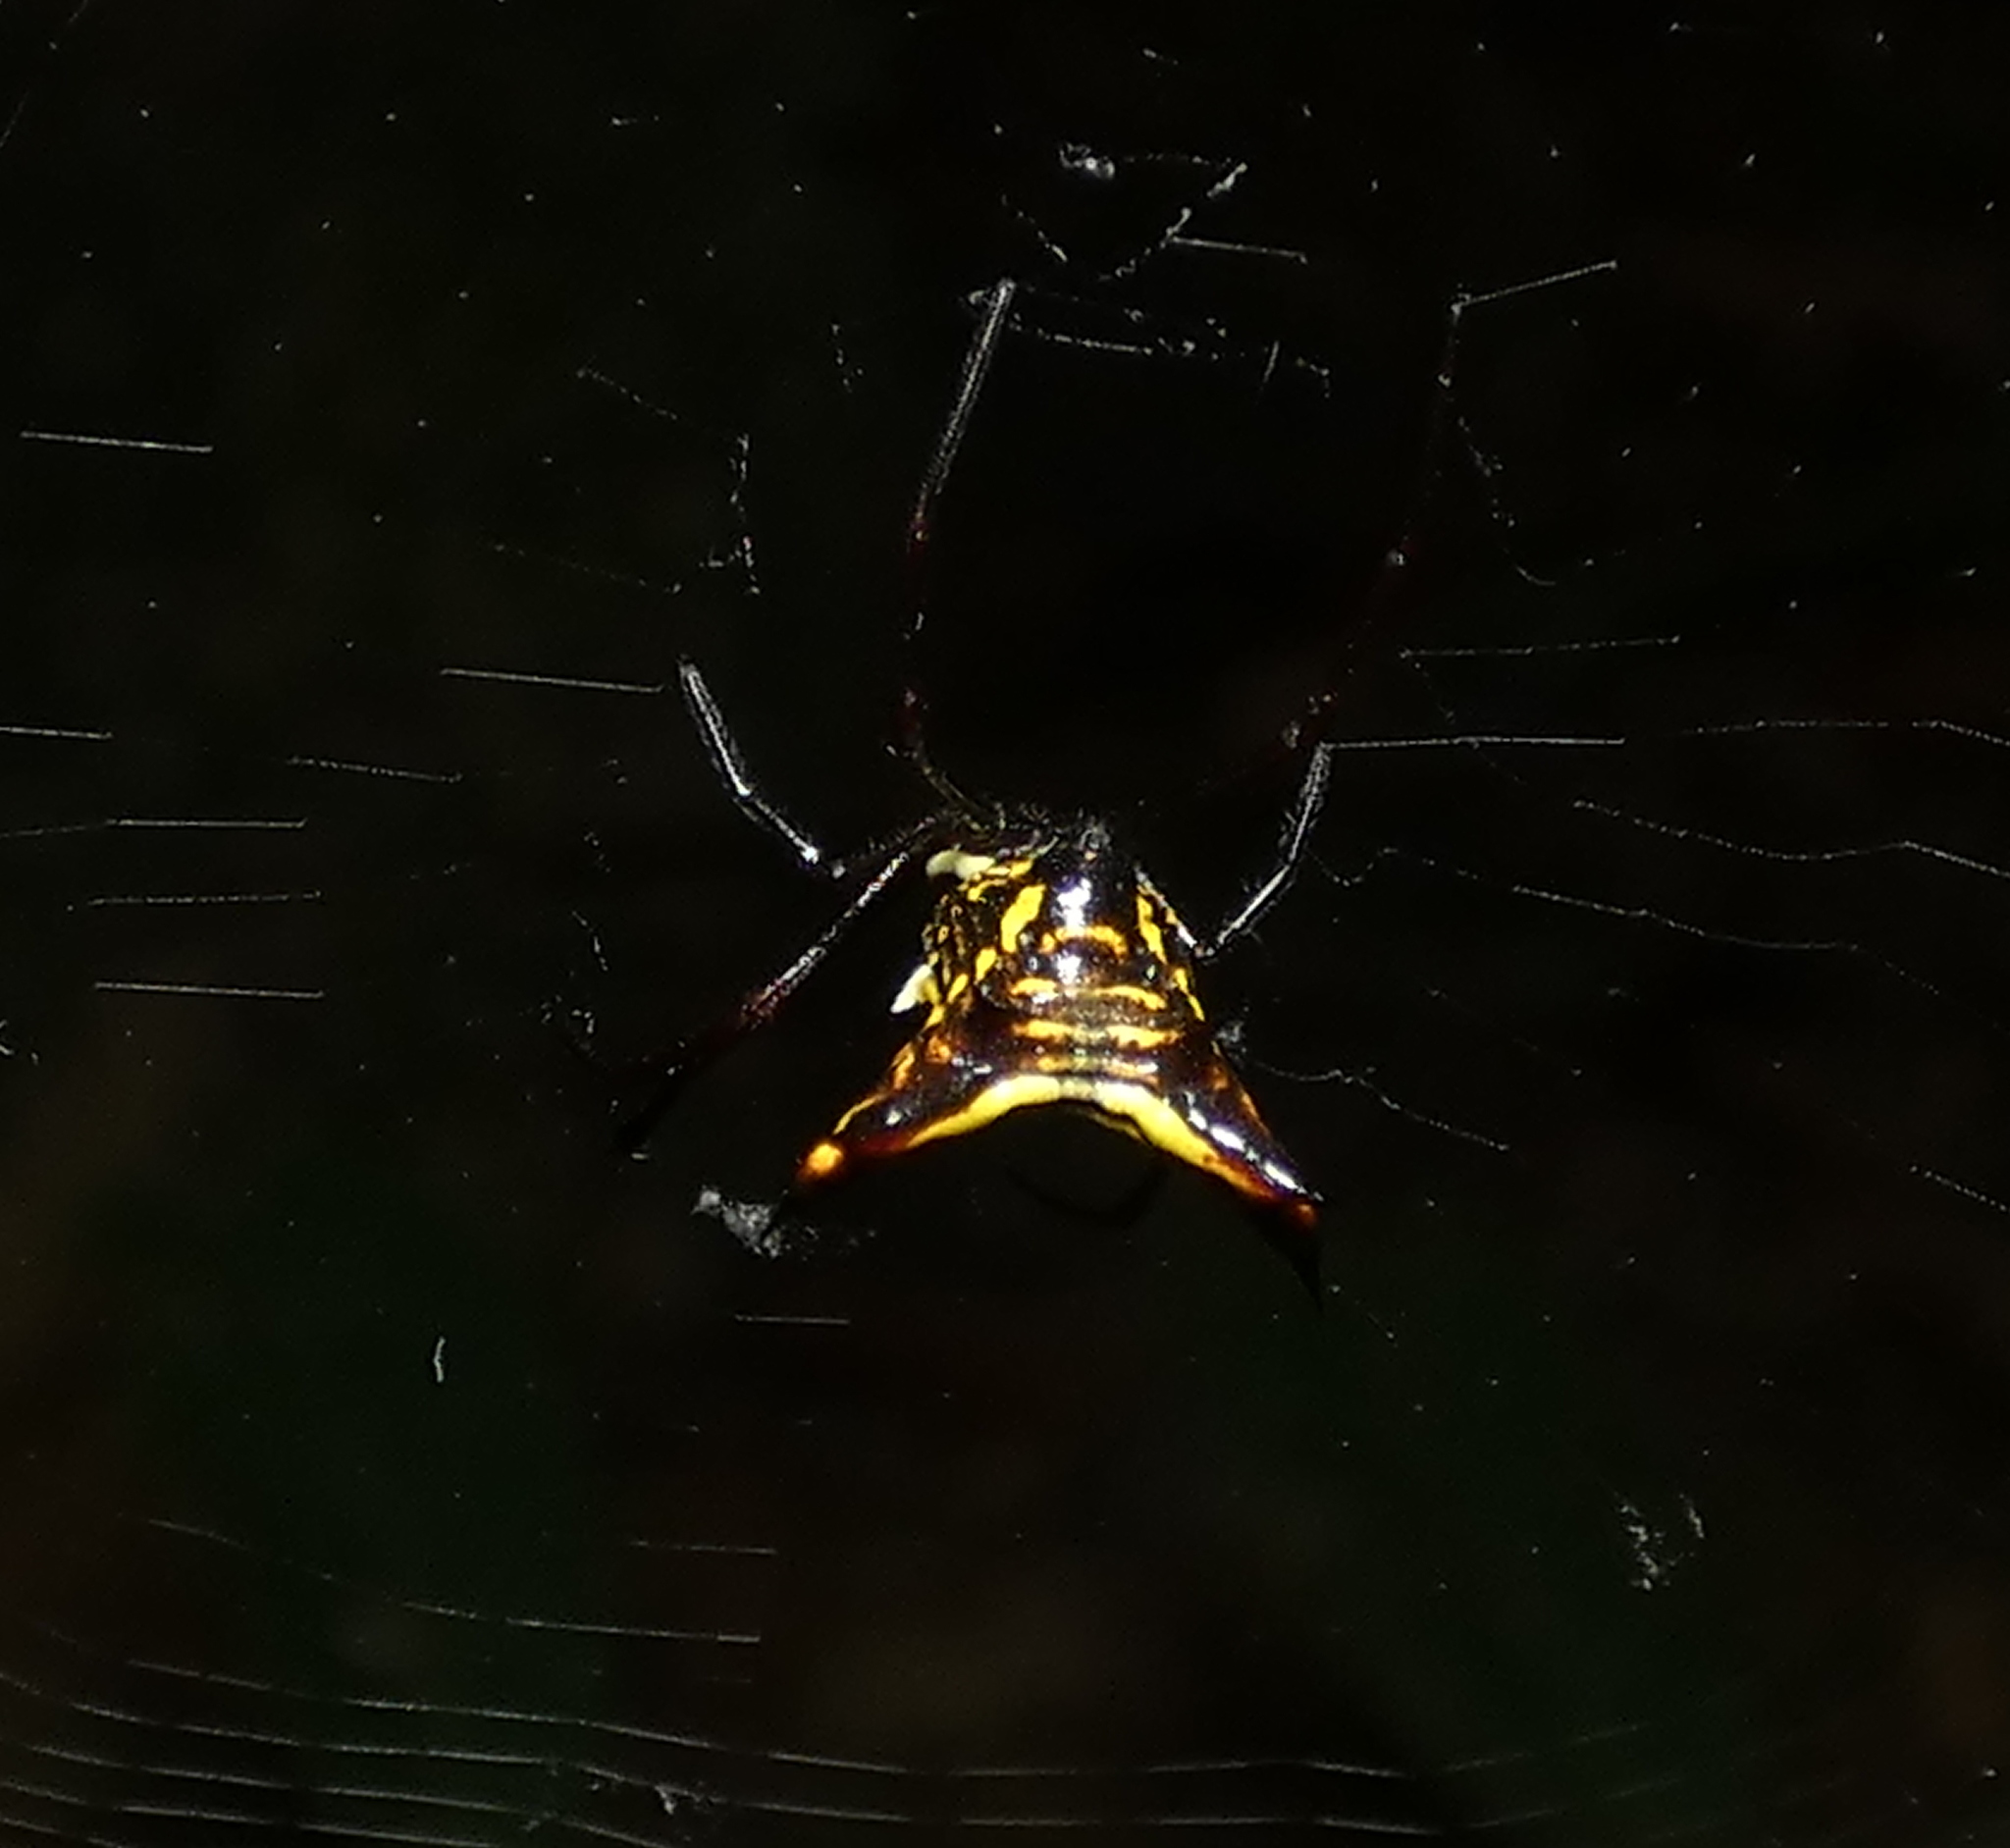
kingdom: Animalia
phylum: Arthropoda
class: Arachnida
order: Araneae
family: Araneidae
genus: Micrathena
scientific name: Micrathena fissispina
